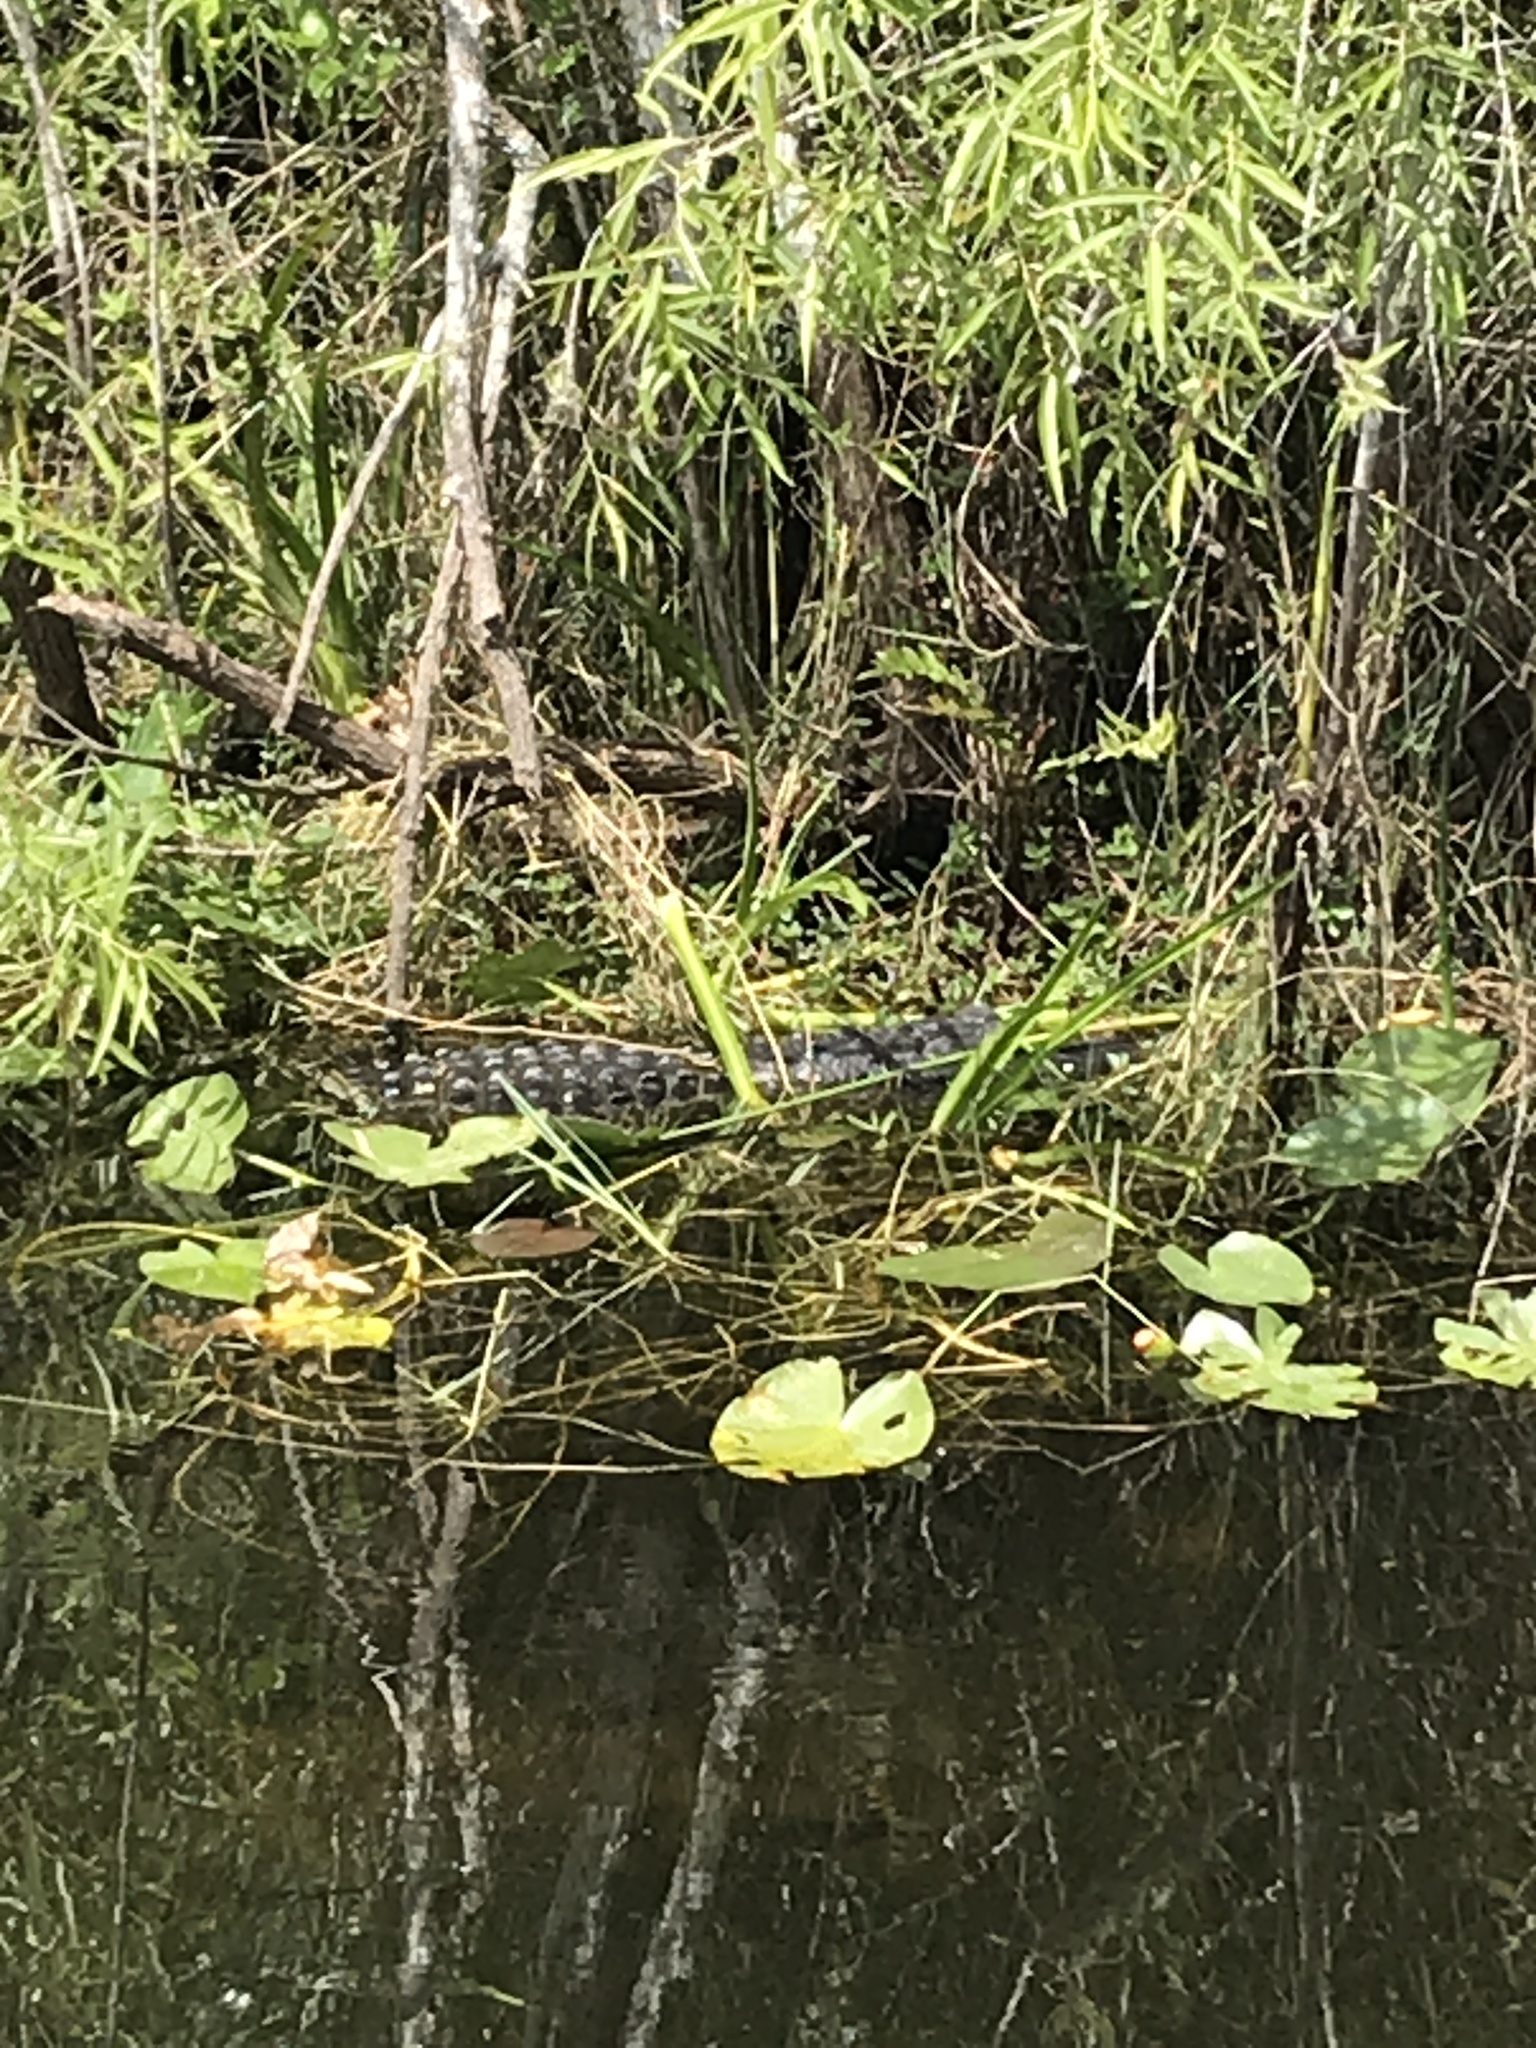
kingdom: Animalia
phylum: Chordata
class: Crocodylia
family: Alligatoridae
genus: Alligator
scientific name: Alligator mississippiensis
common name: American alligator
